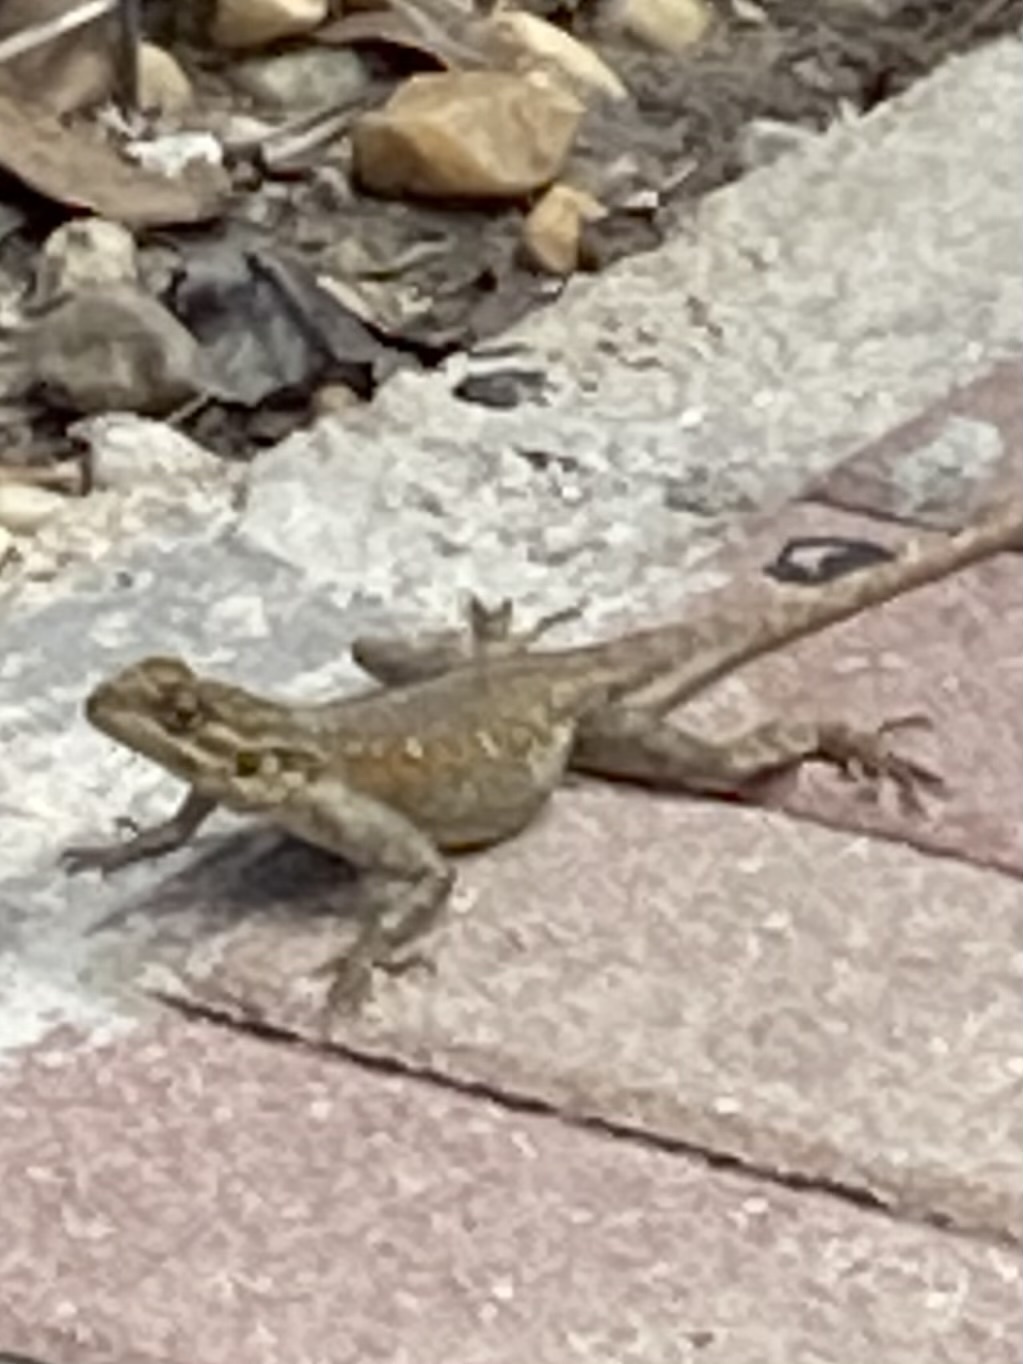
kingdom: Animalia
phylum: Chordata
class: Squamata
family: Agamidae
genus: Agama
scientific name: Agama picticauda
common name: Red-headed agama
